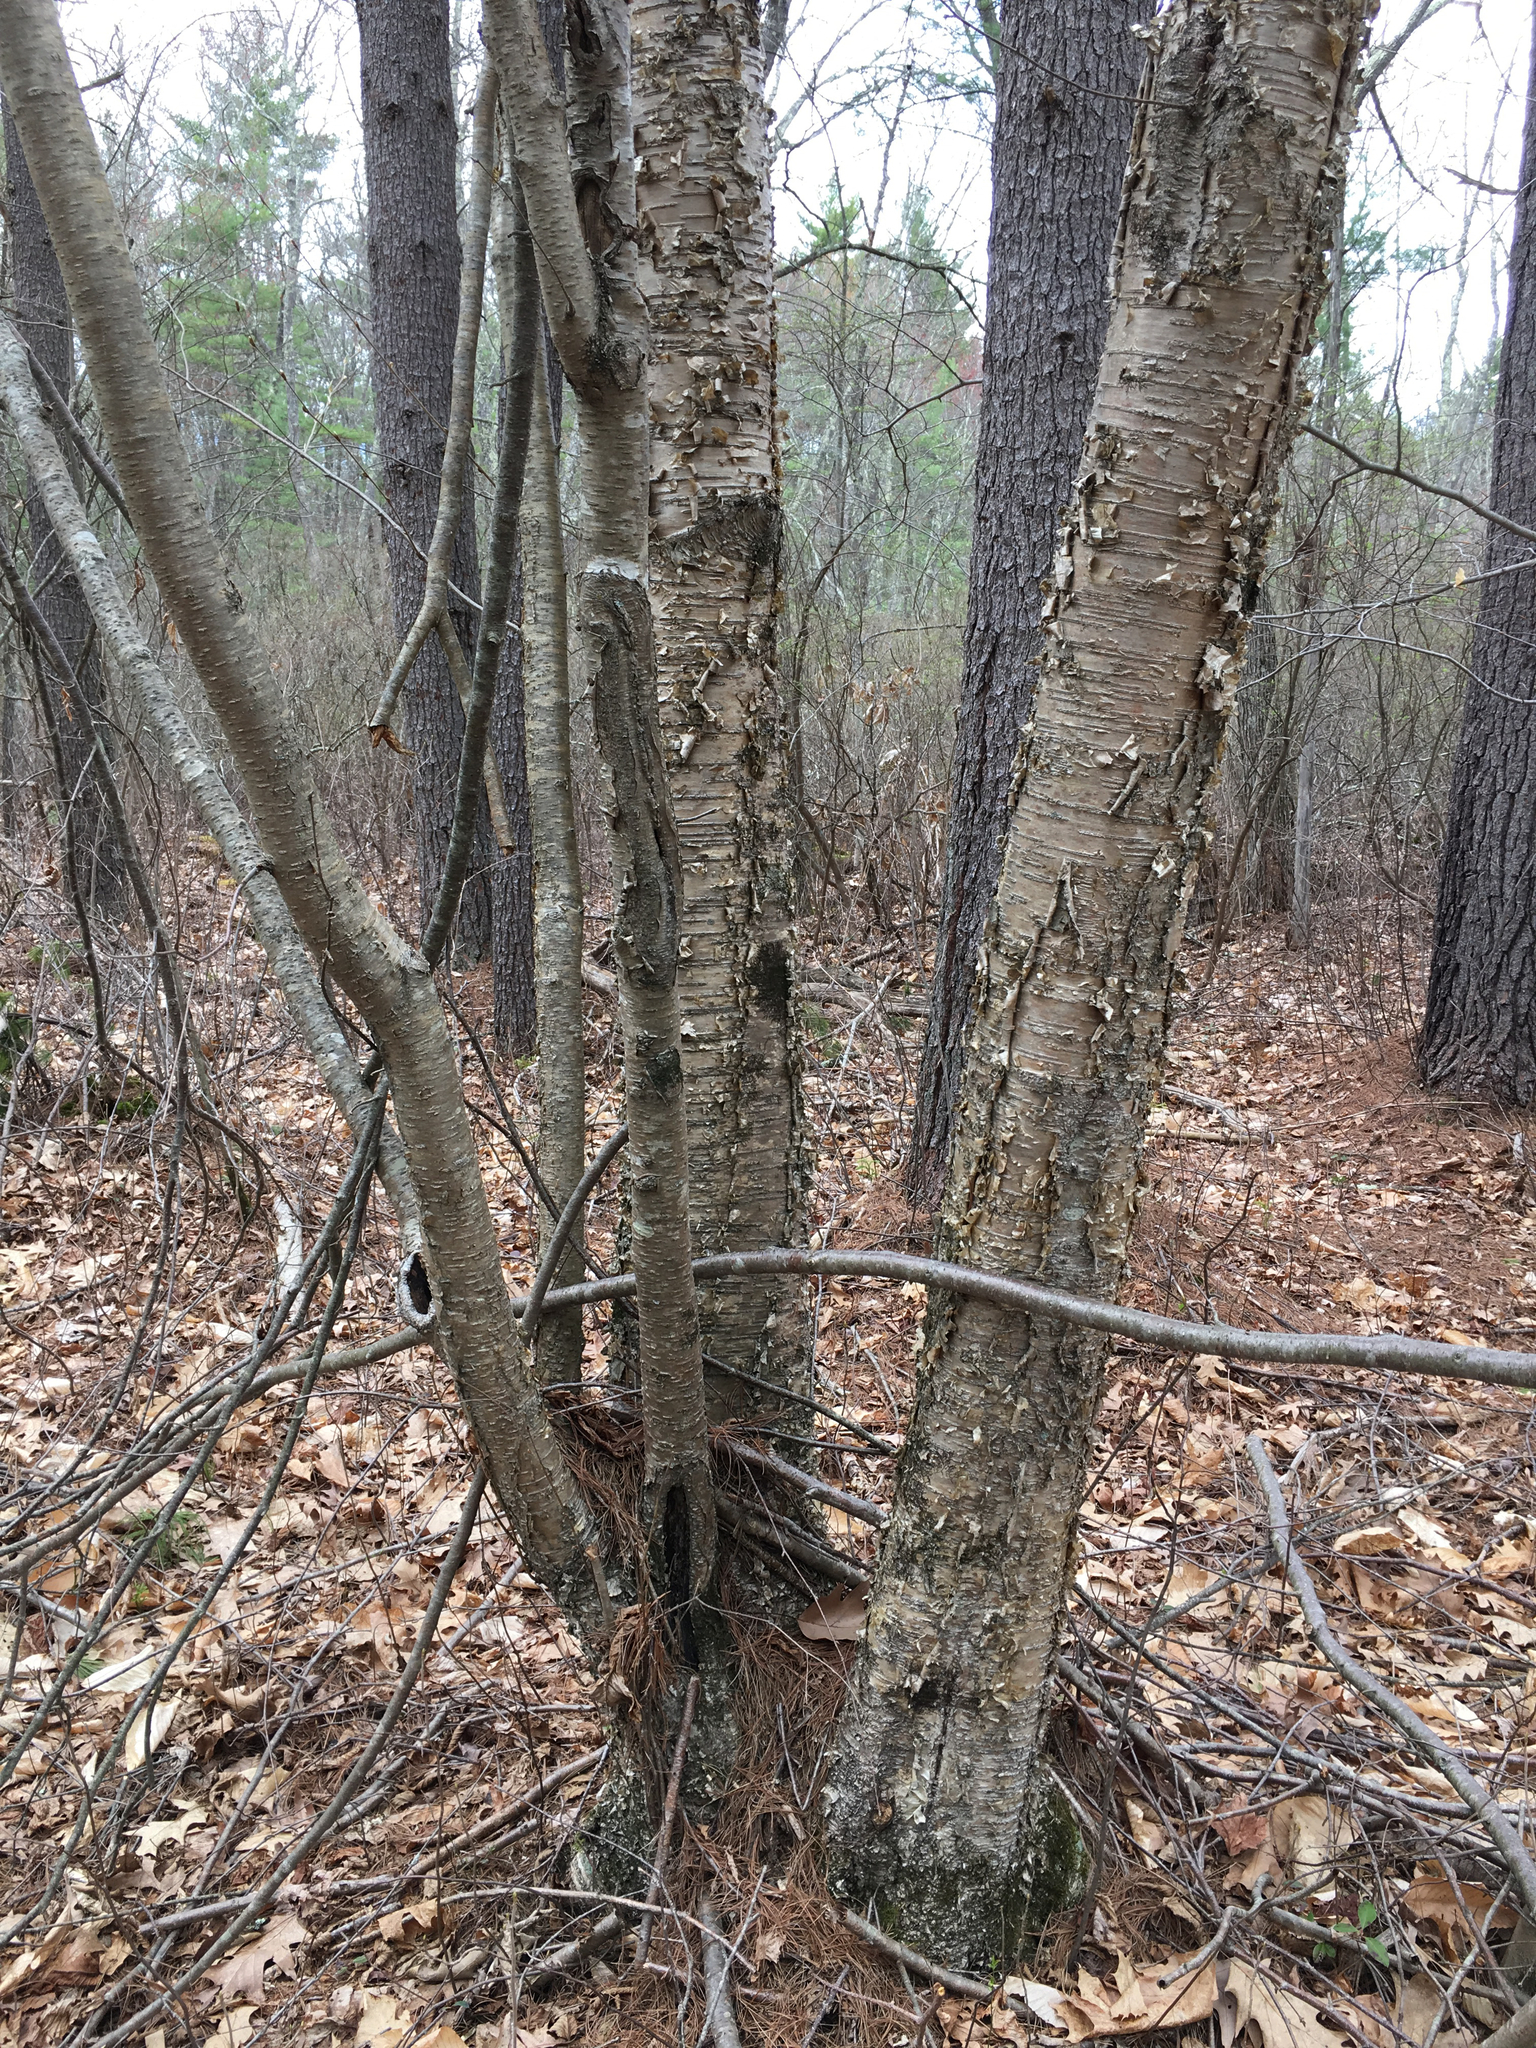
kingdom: Plantae
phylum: Tracheophyta
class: Magnoliopsida
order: Fagales
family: Betulaceae
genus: Betula
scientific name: Betula alleghaniensis
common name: Yellow birch
